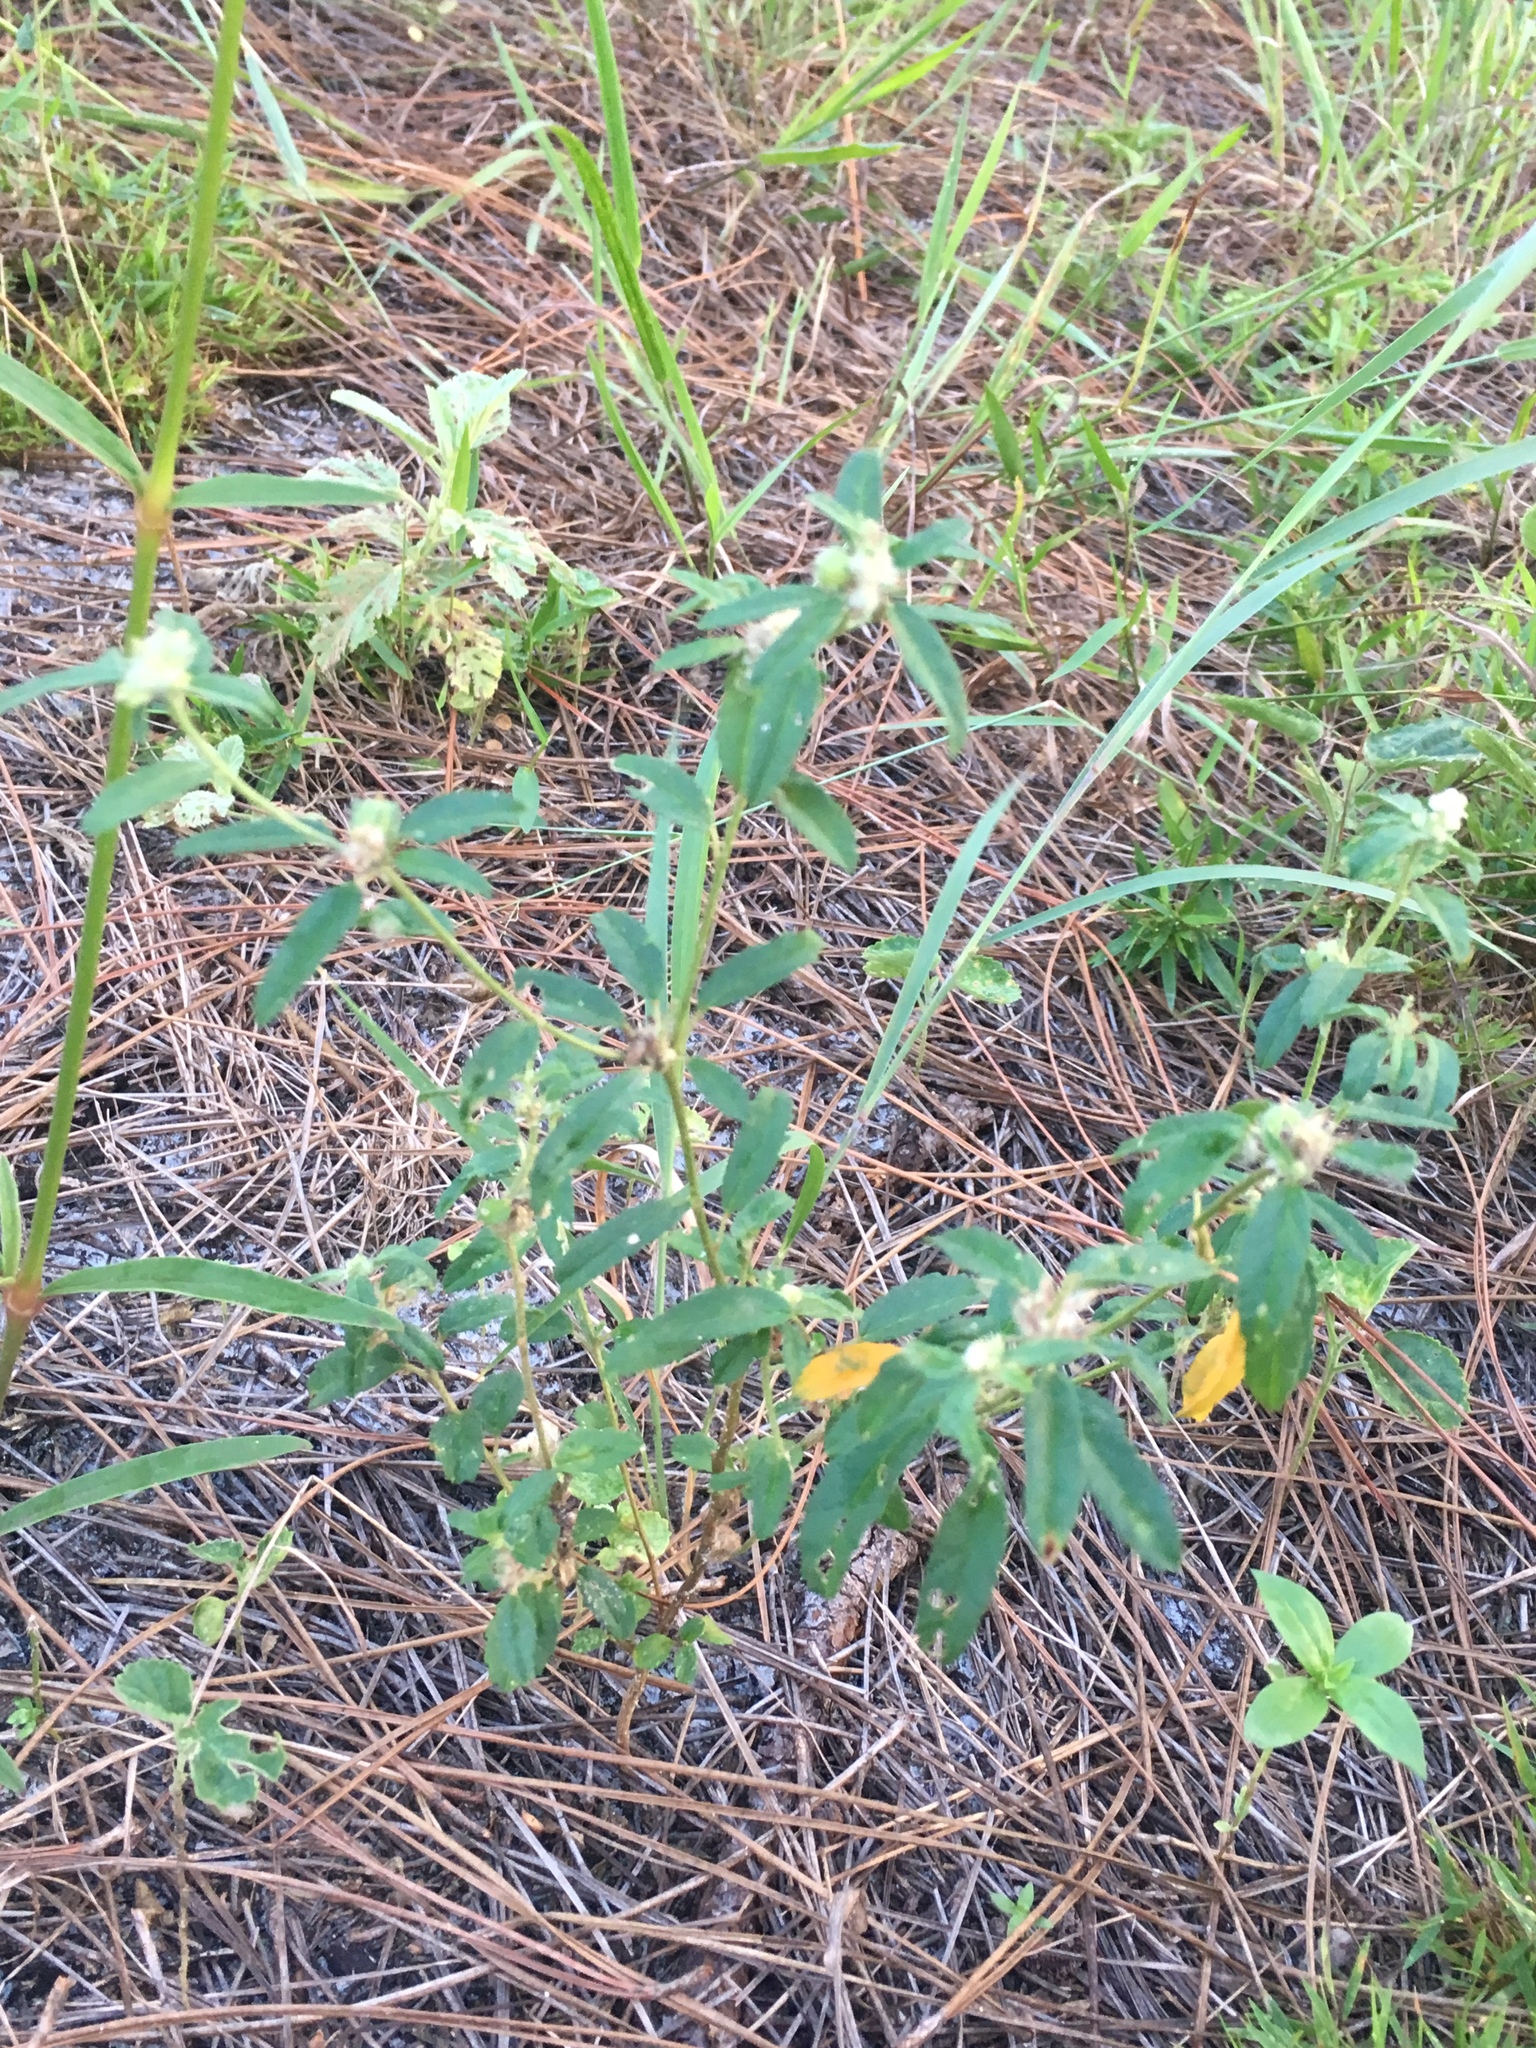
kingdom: Plantae
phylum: Tracheophyta
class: Magnoliopsida
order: Malpighiales
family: Euphorbiaceae
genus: Croton
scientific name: Croton glandulosus
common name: Tropic croton
